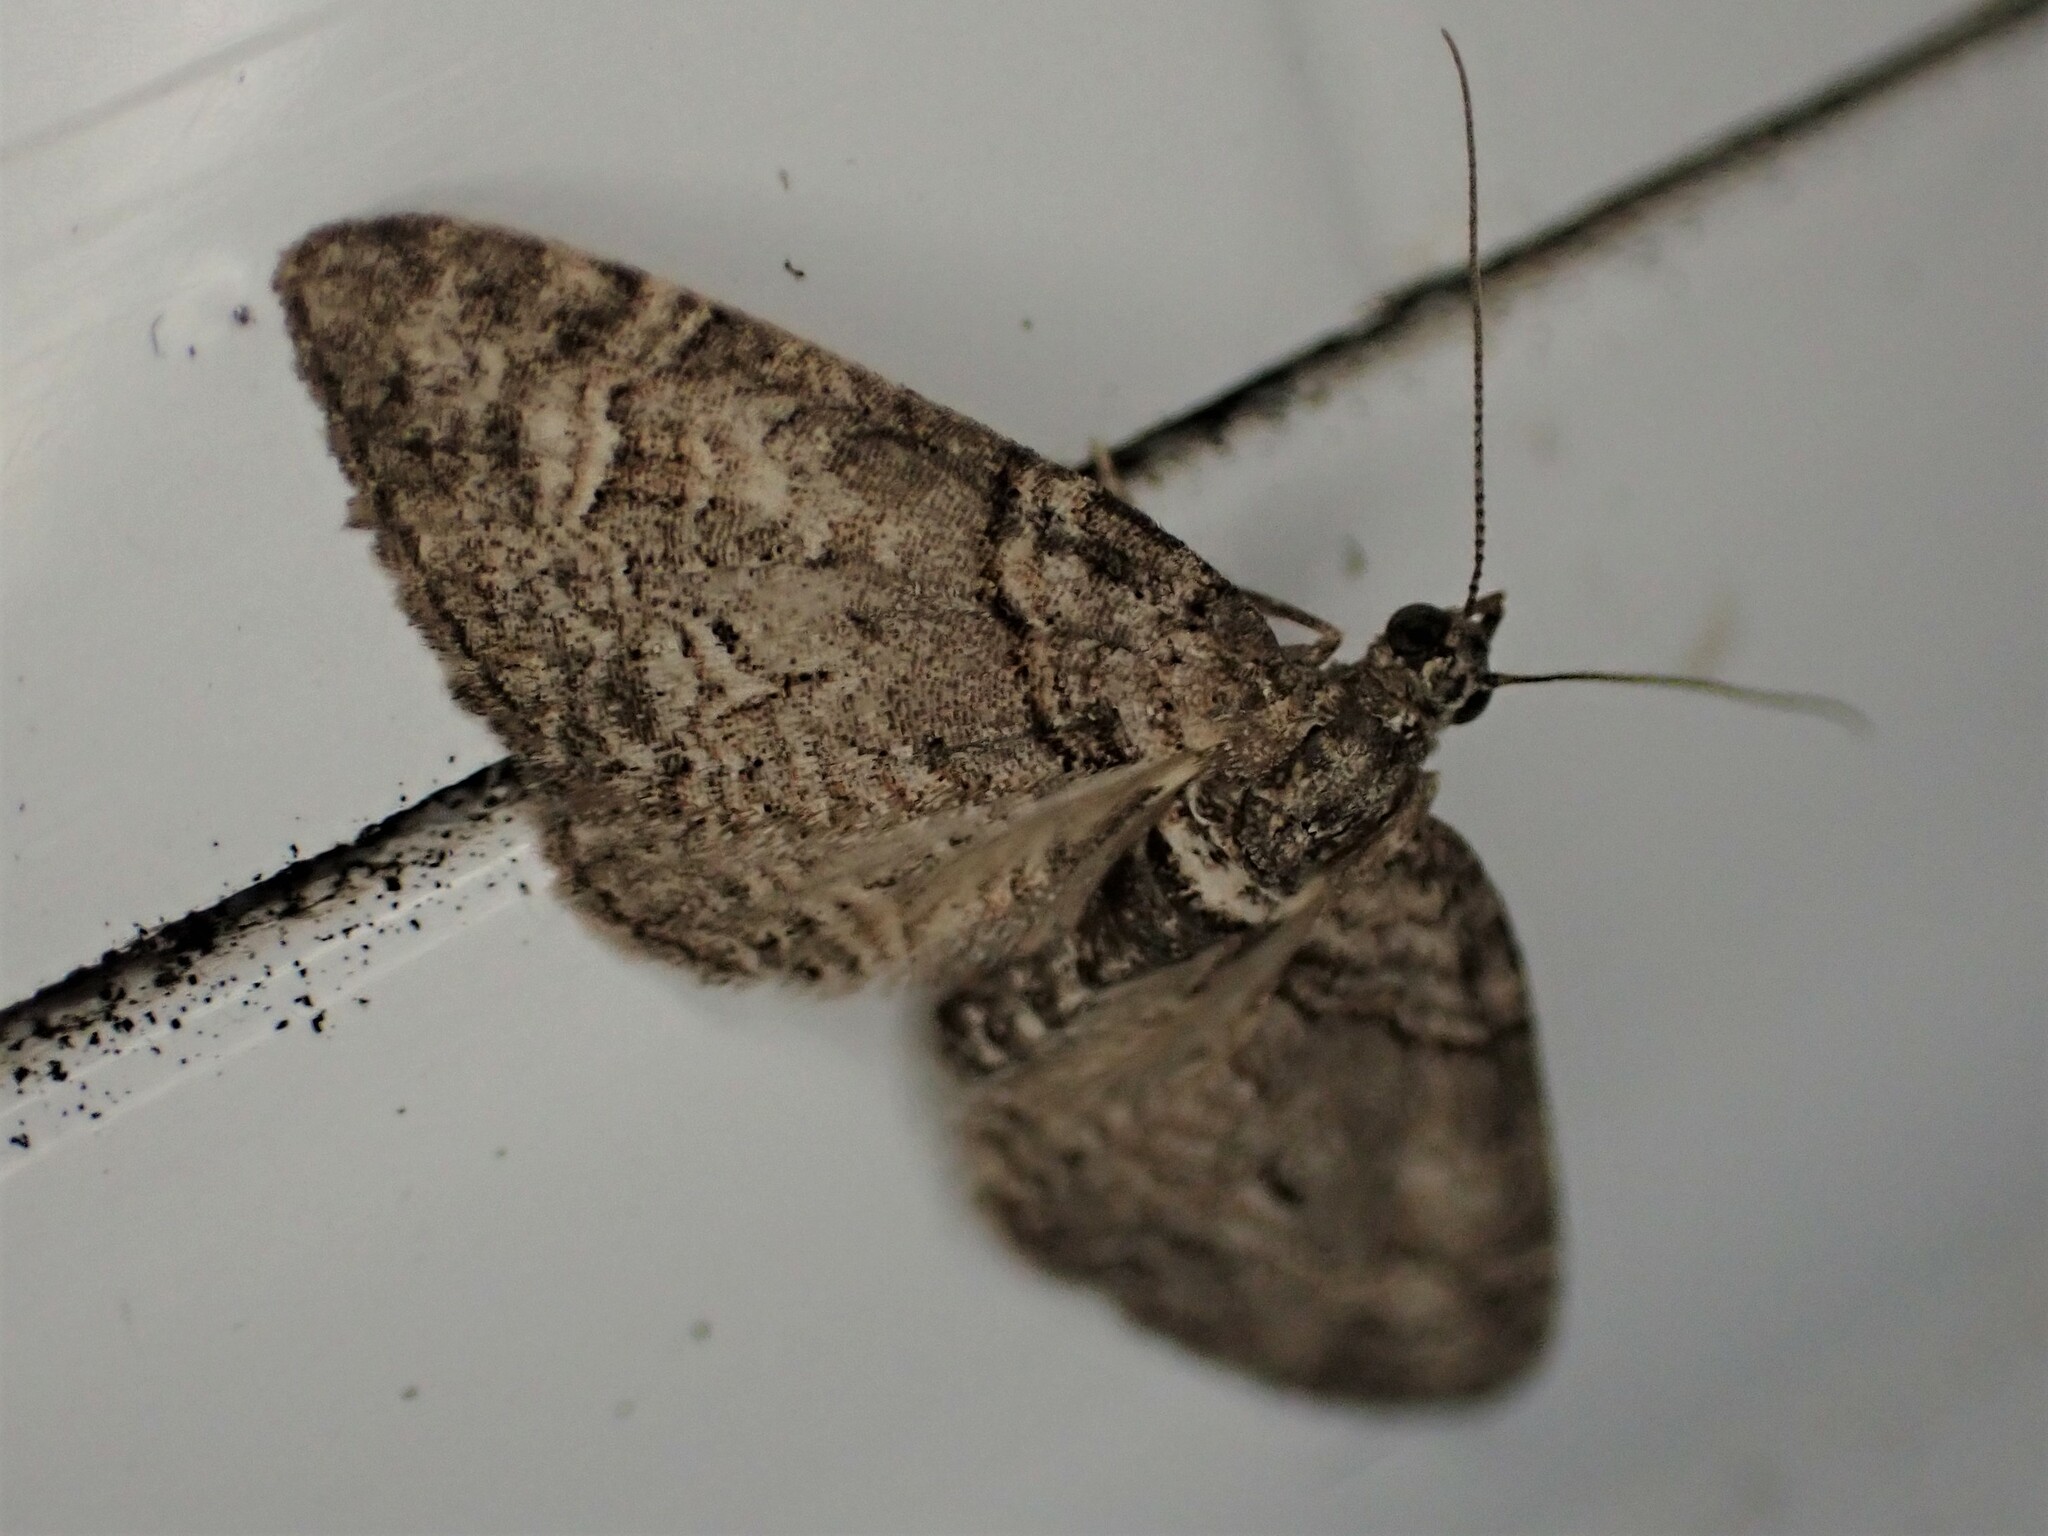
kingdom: Animalia
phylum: Arthropoda
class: Insecta
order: Lepidoptera
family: Geometridae
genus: Phrissogonus
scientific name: Phrissogonus laticostata
